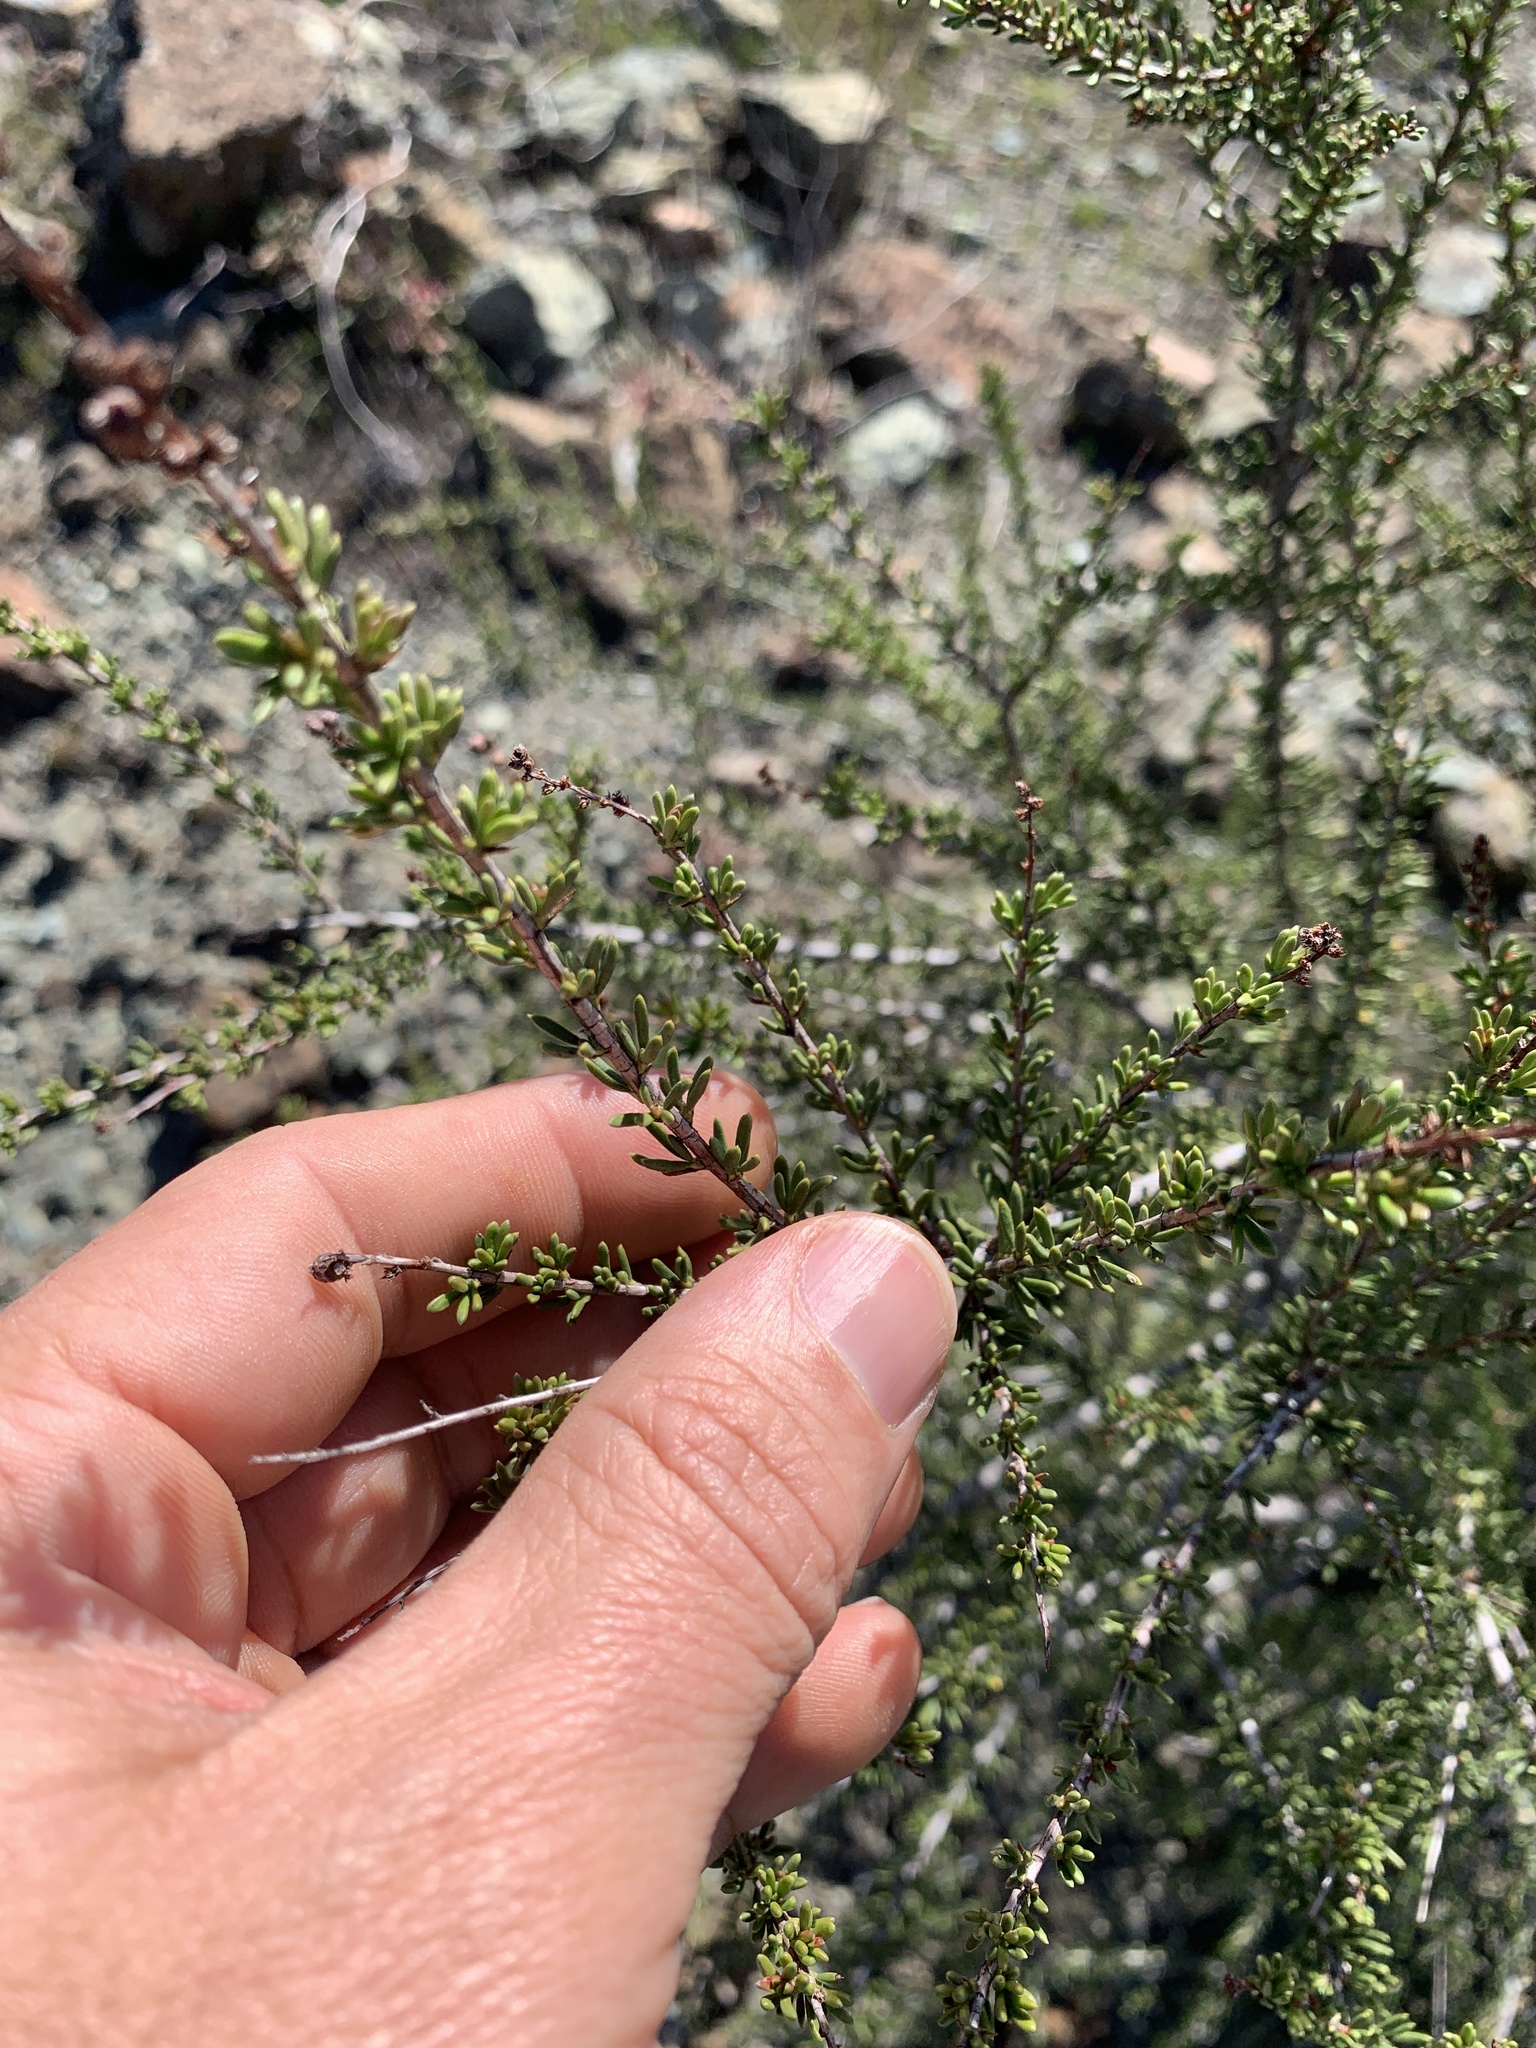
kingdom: Plantae
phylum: Tracheophyta
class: Magnoliopsida
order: Rosales
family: Rosaceae
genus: Adenostoma
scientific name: Adenostoma fasciculatum
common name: Chamise
